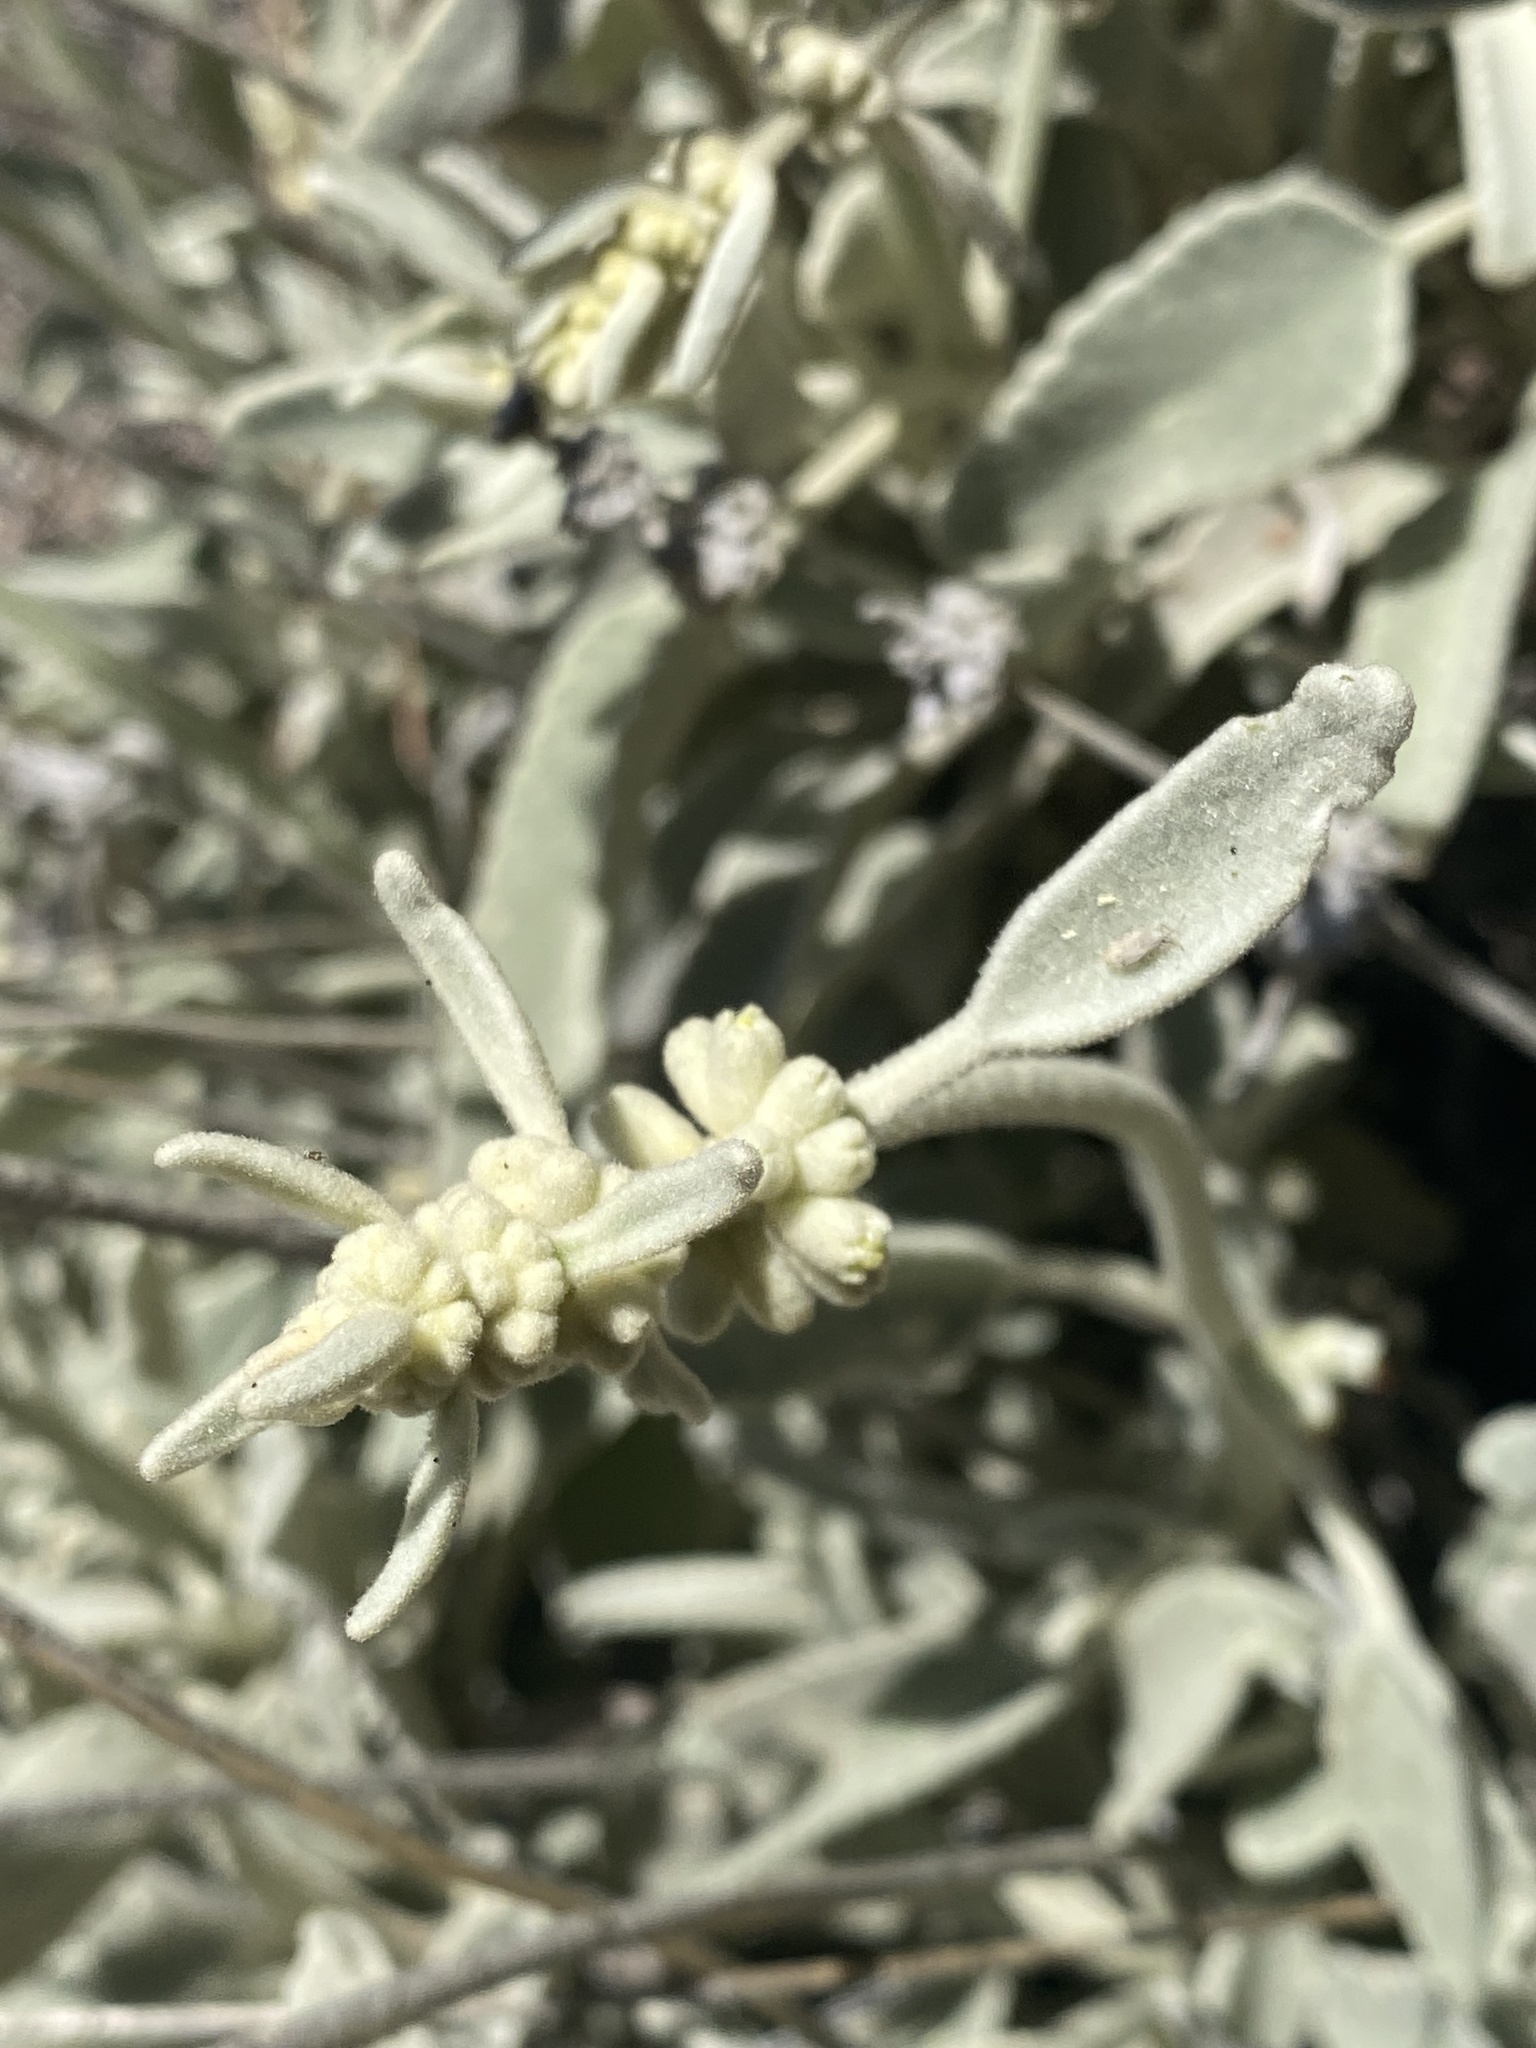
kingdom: Plantae
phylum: Tracheophyta
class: Magnoliopsida
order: Lamiales
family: Lamiaceae
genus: Sideritis
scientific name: Sideritis oroteneriffae
